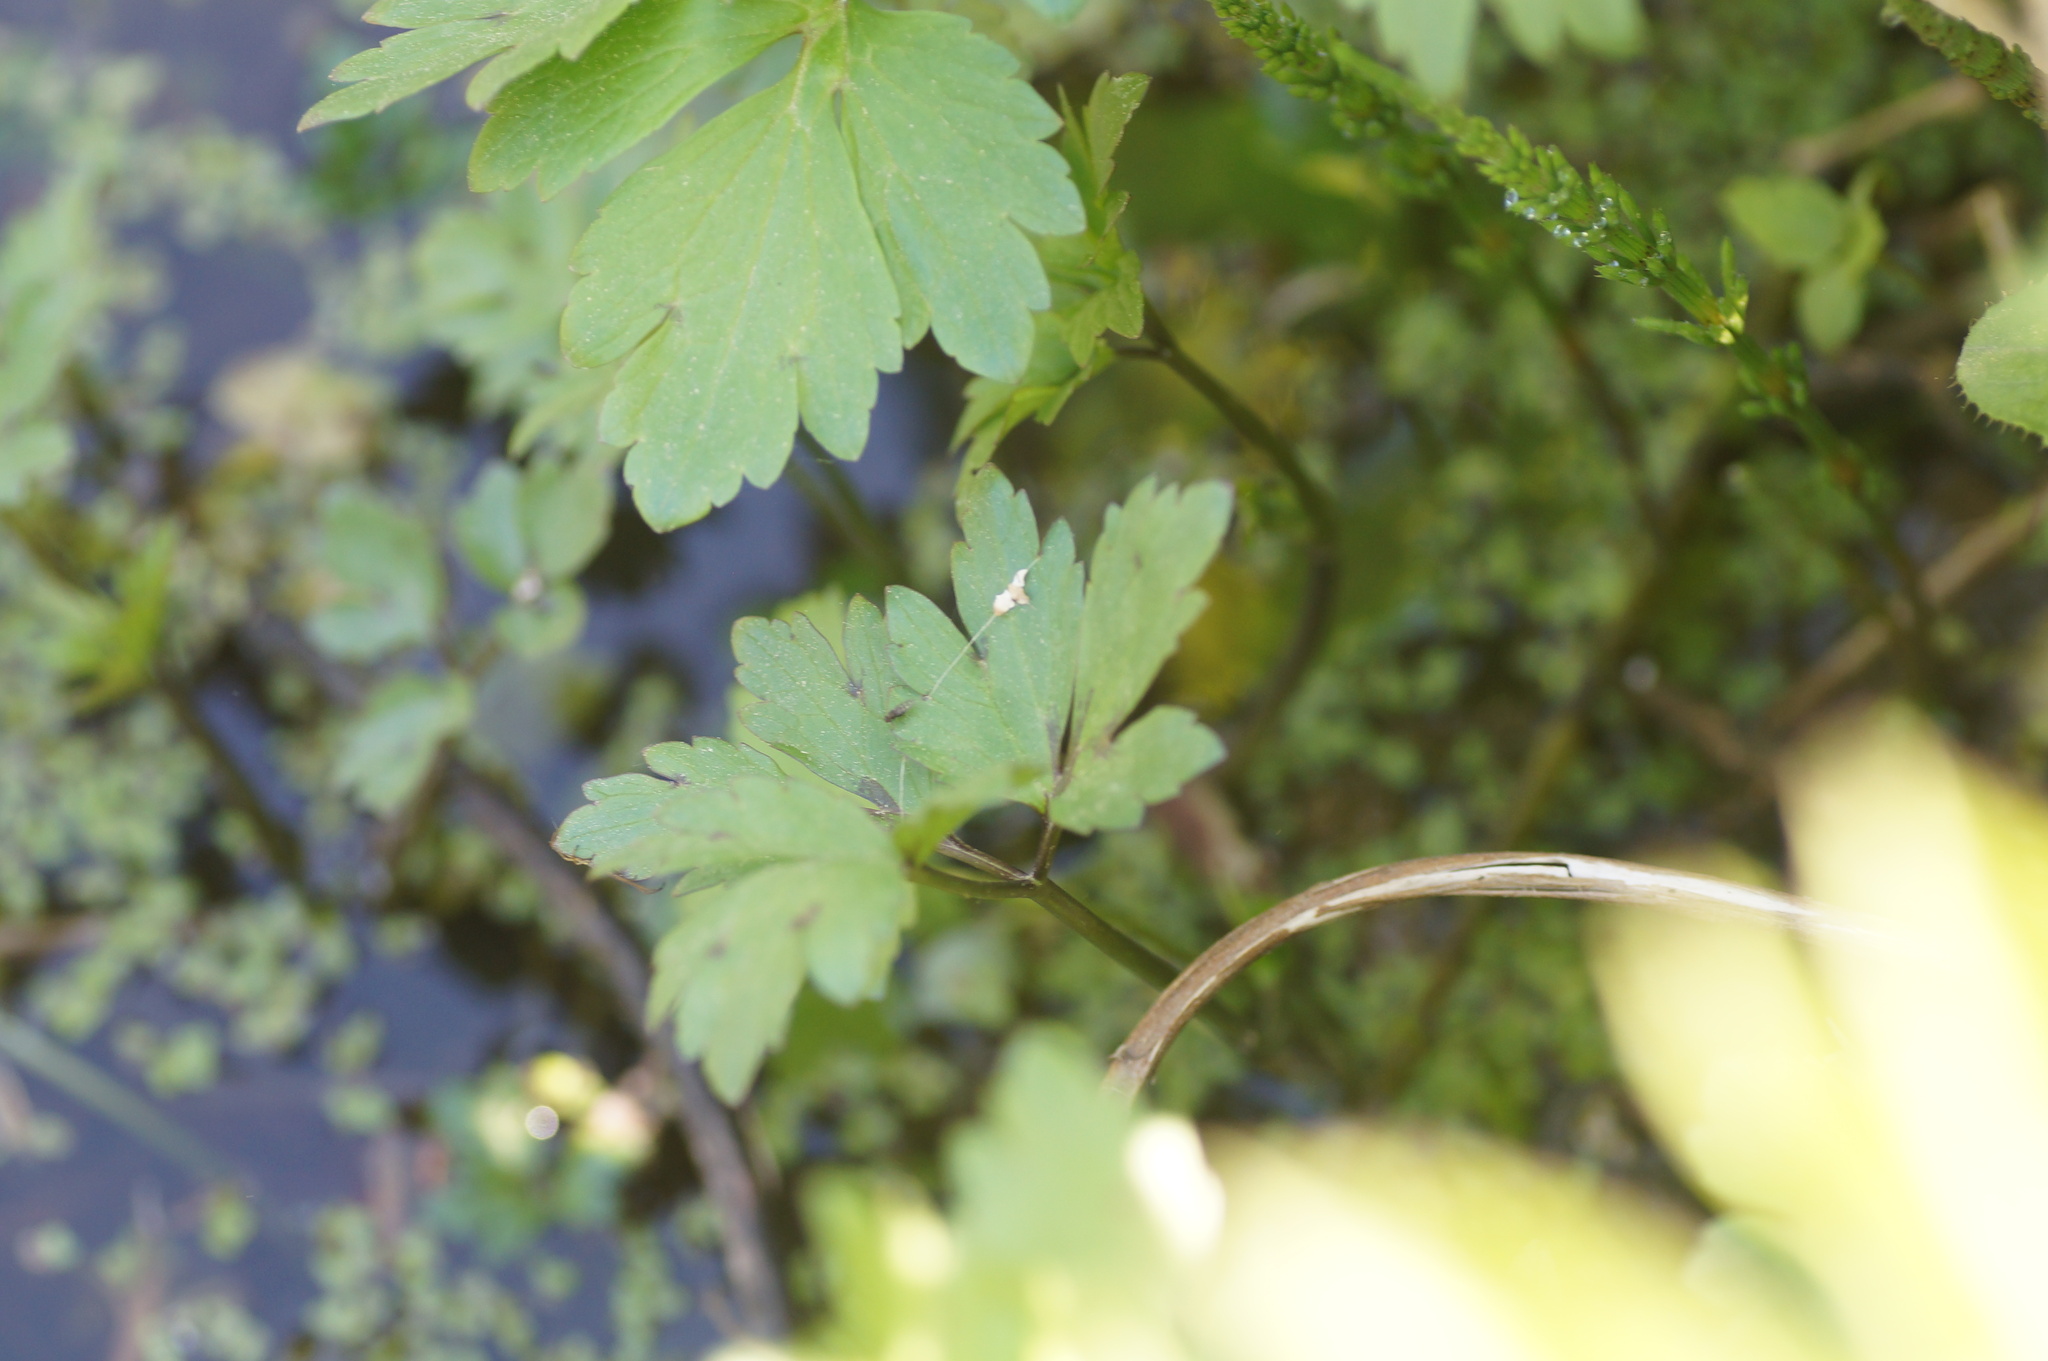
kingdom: Plantae
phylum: Tracheophyta
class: Magnoliopsida
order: Ranunculales
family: Ranunculaceae
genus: Ranunculus
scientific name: Ranunculus repens
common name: Creeping buttercup
